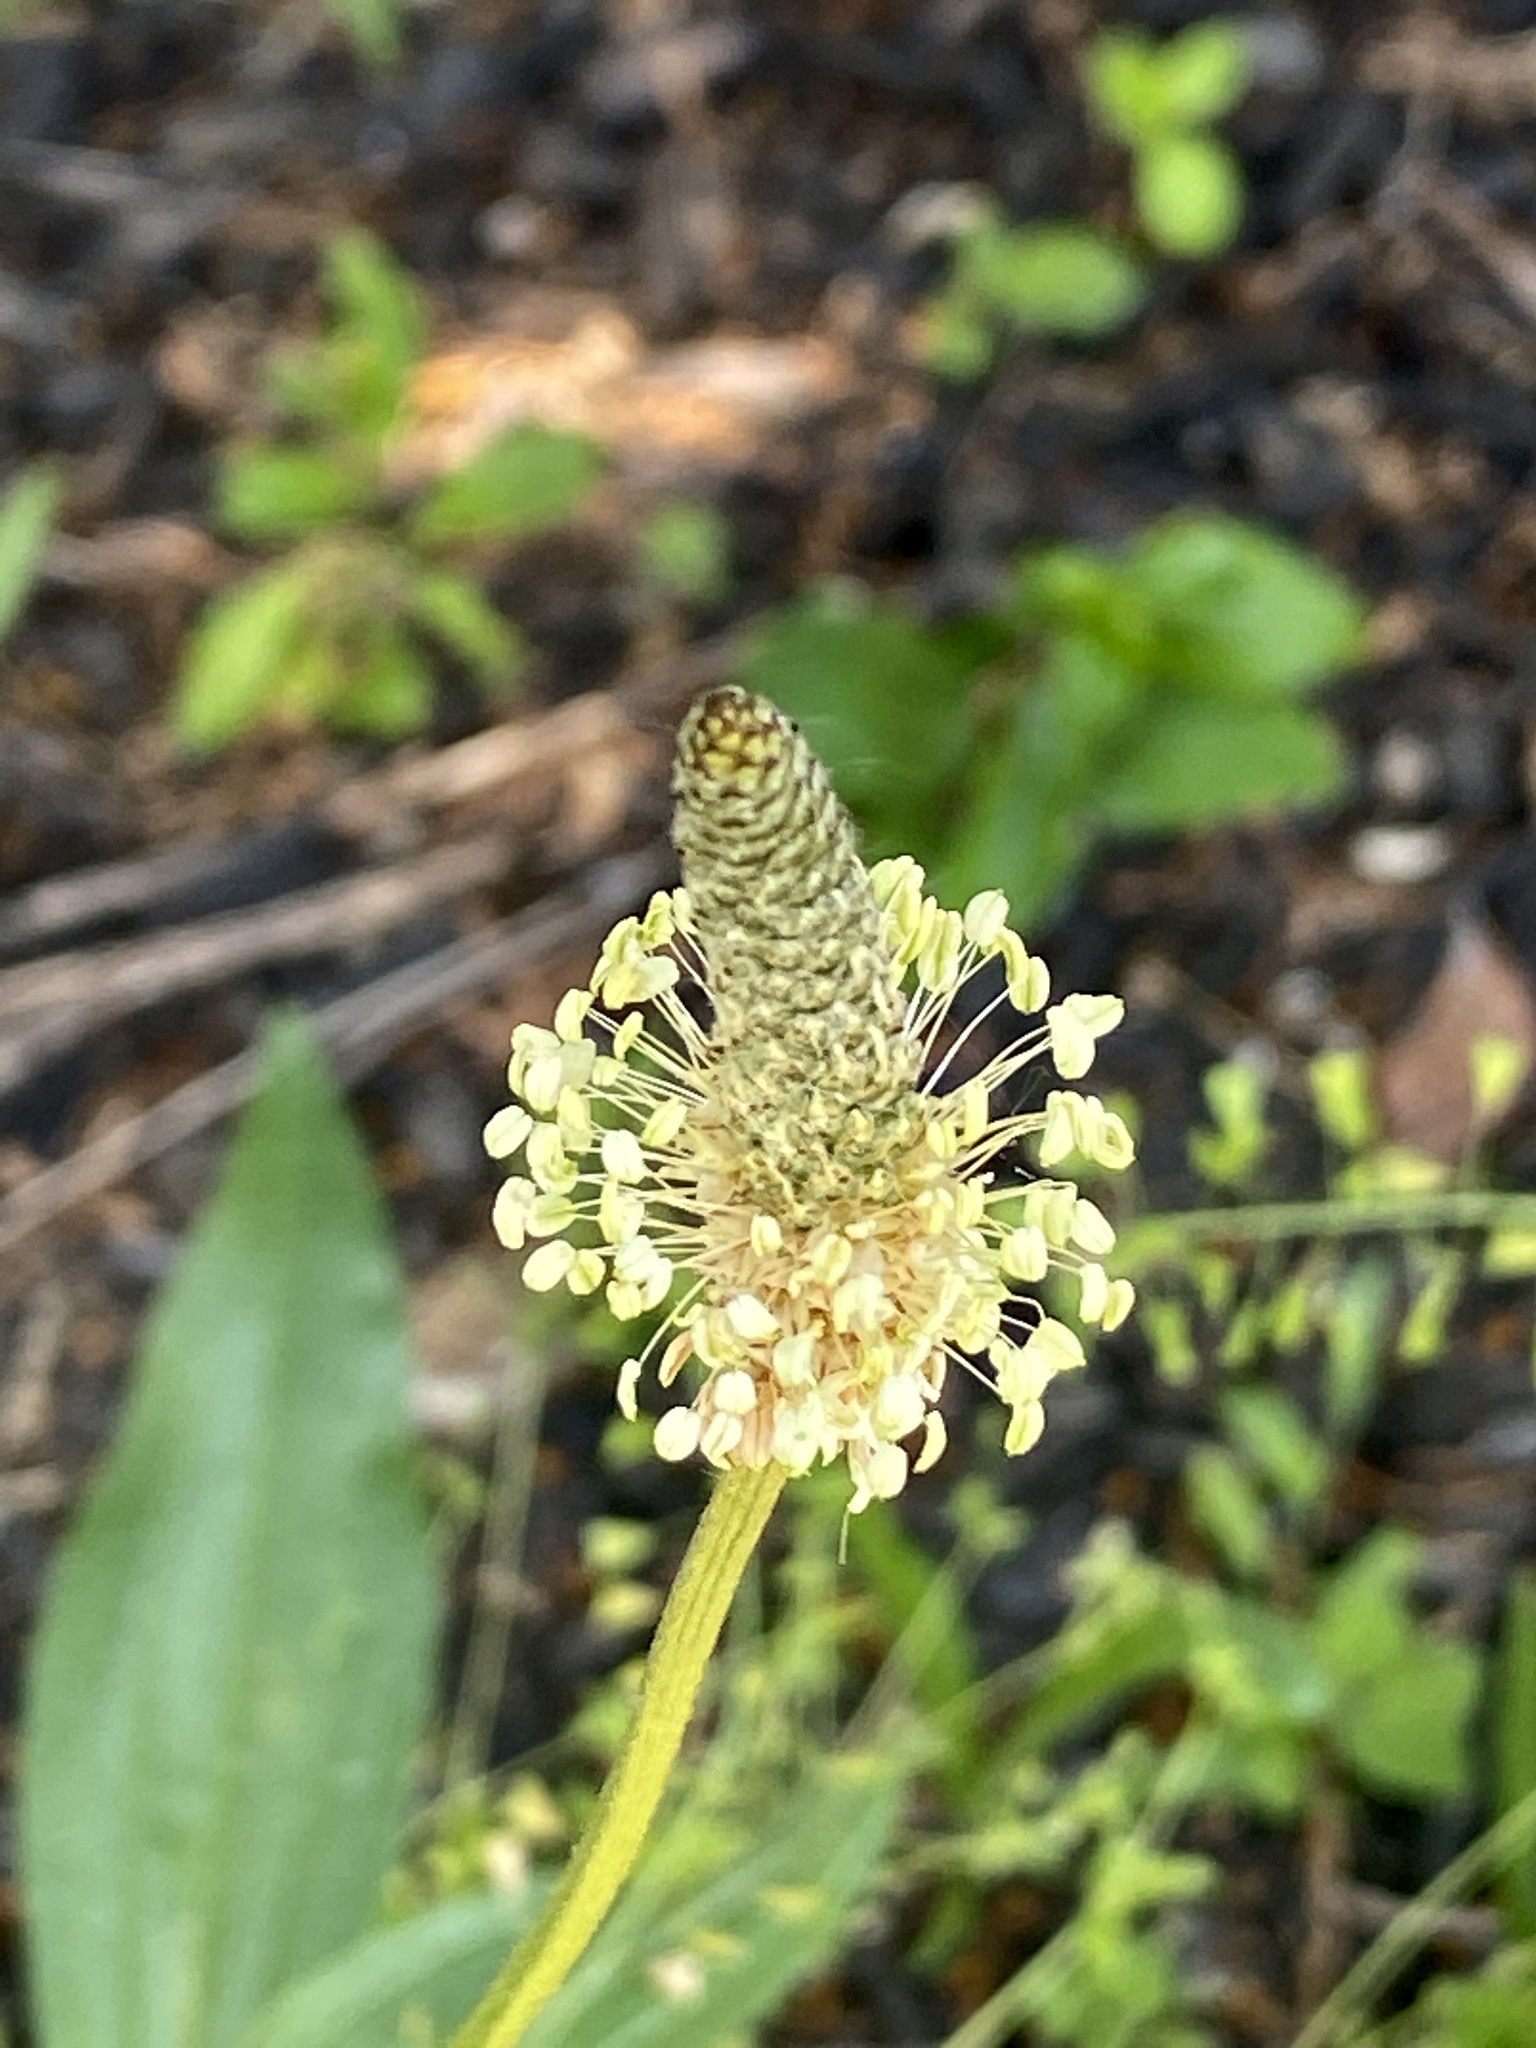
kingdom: Plantae
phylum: Tracheophyta
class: Magnoliopsida
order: Lamiales
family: Plantaginaceae
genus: Plantago
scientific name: Plantago lanceolata
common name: Ribwort plantain
